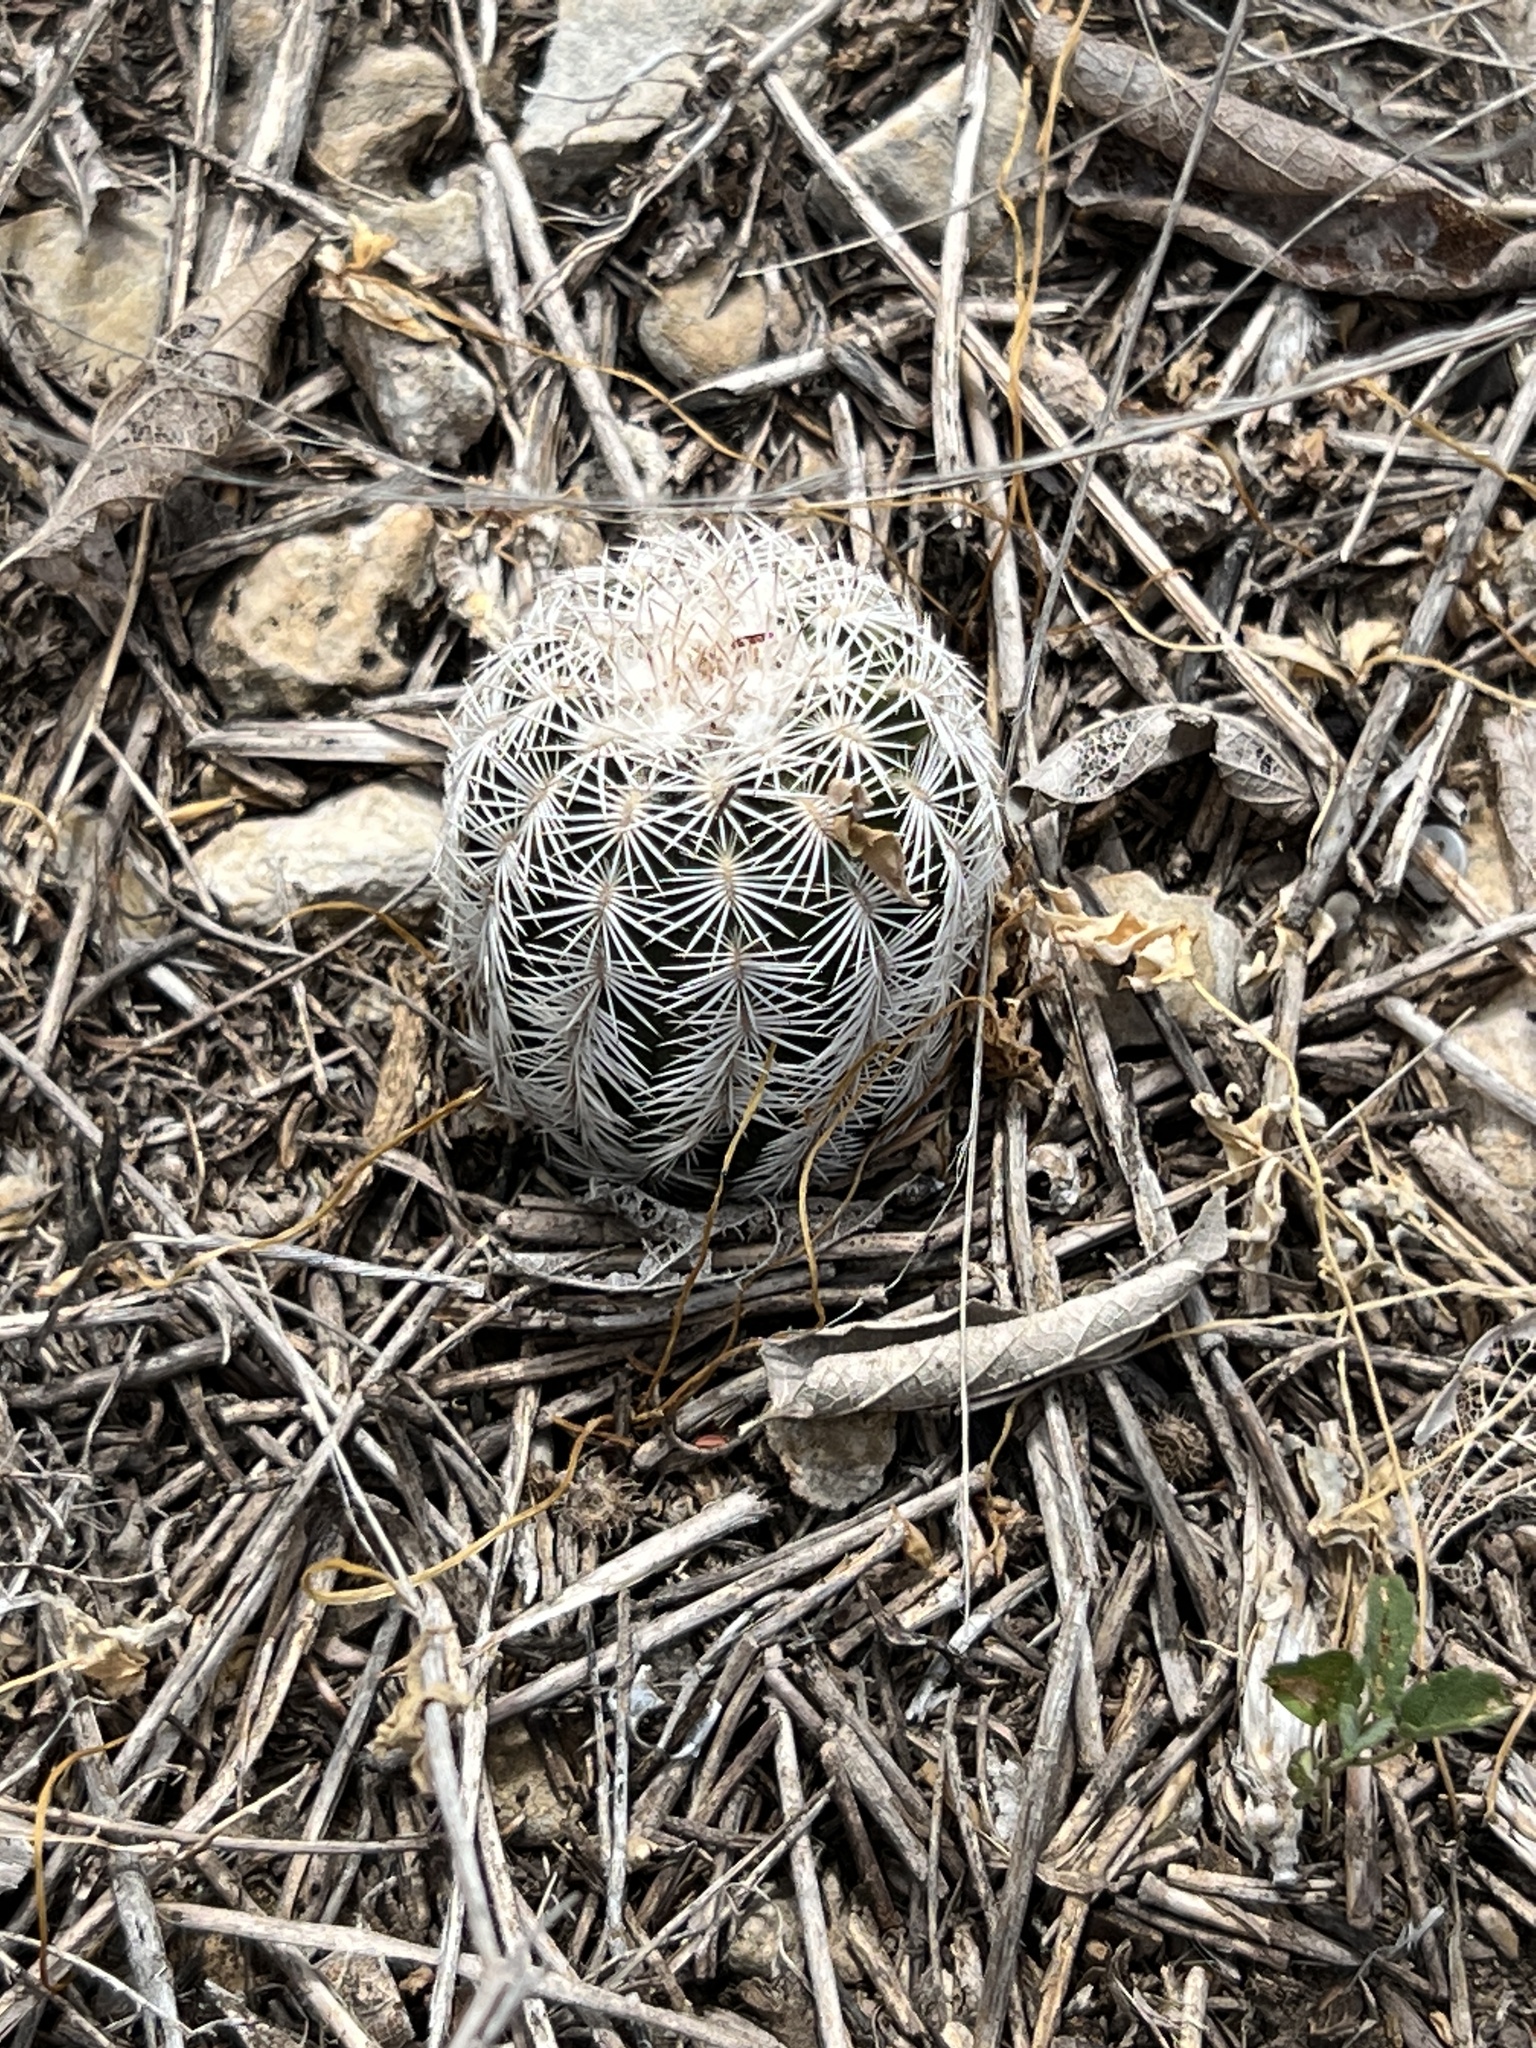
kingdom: Plantae
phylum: Tracheophyta
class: Magnoliopsida
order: Caryophyllales
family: Cactaceae
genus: Echinocereus
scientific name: Echinocereus reichenbachii
